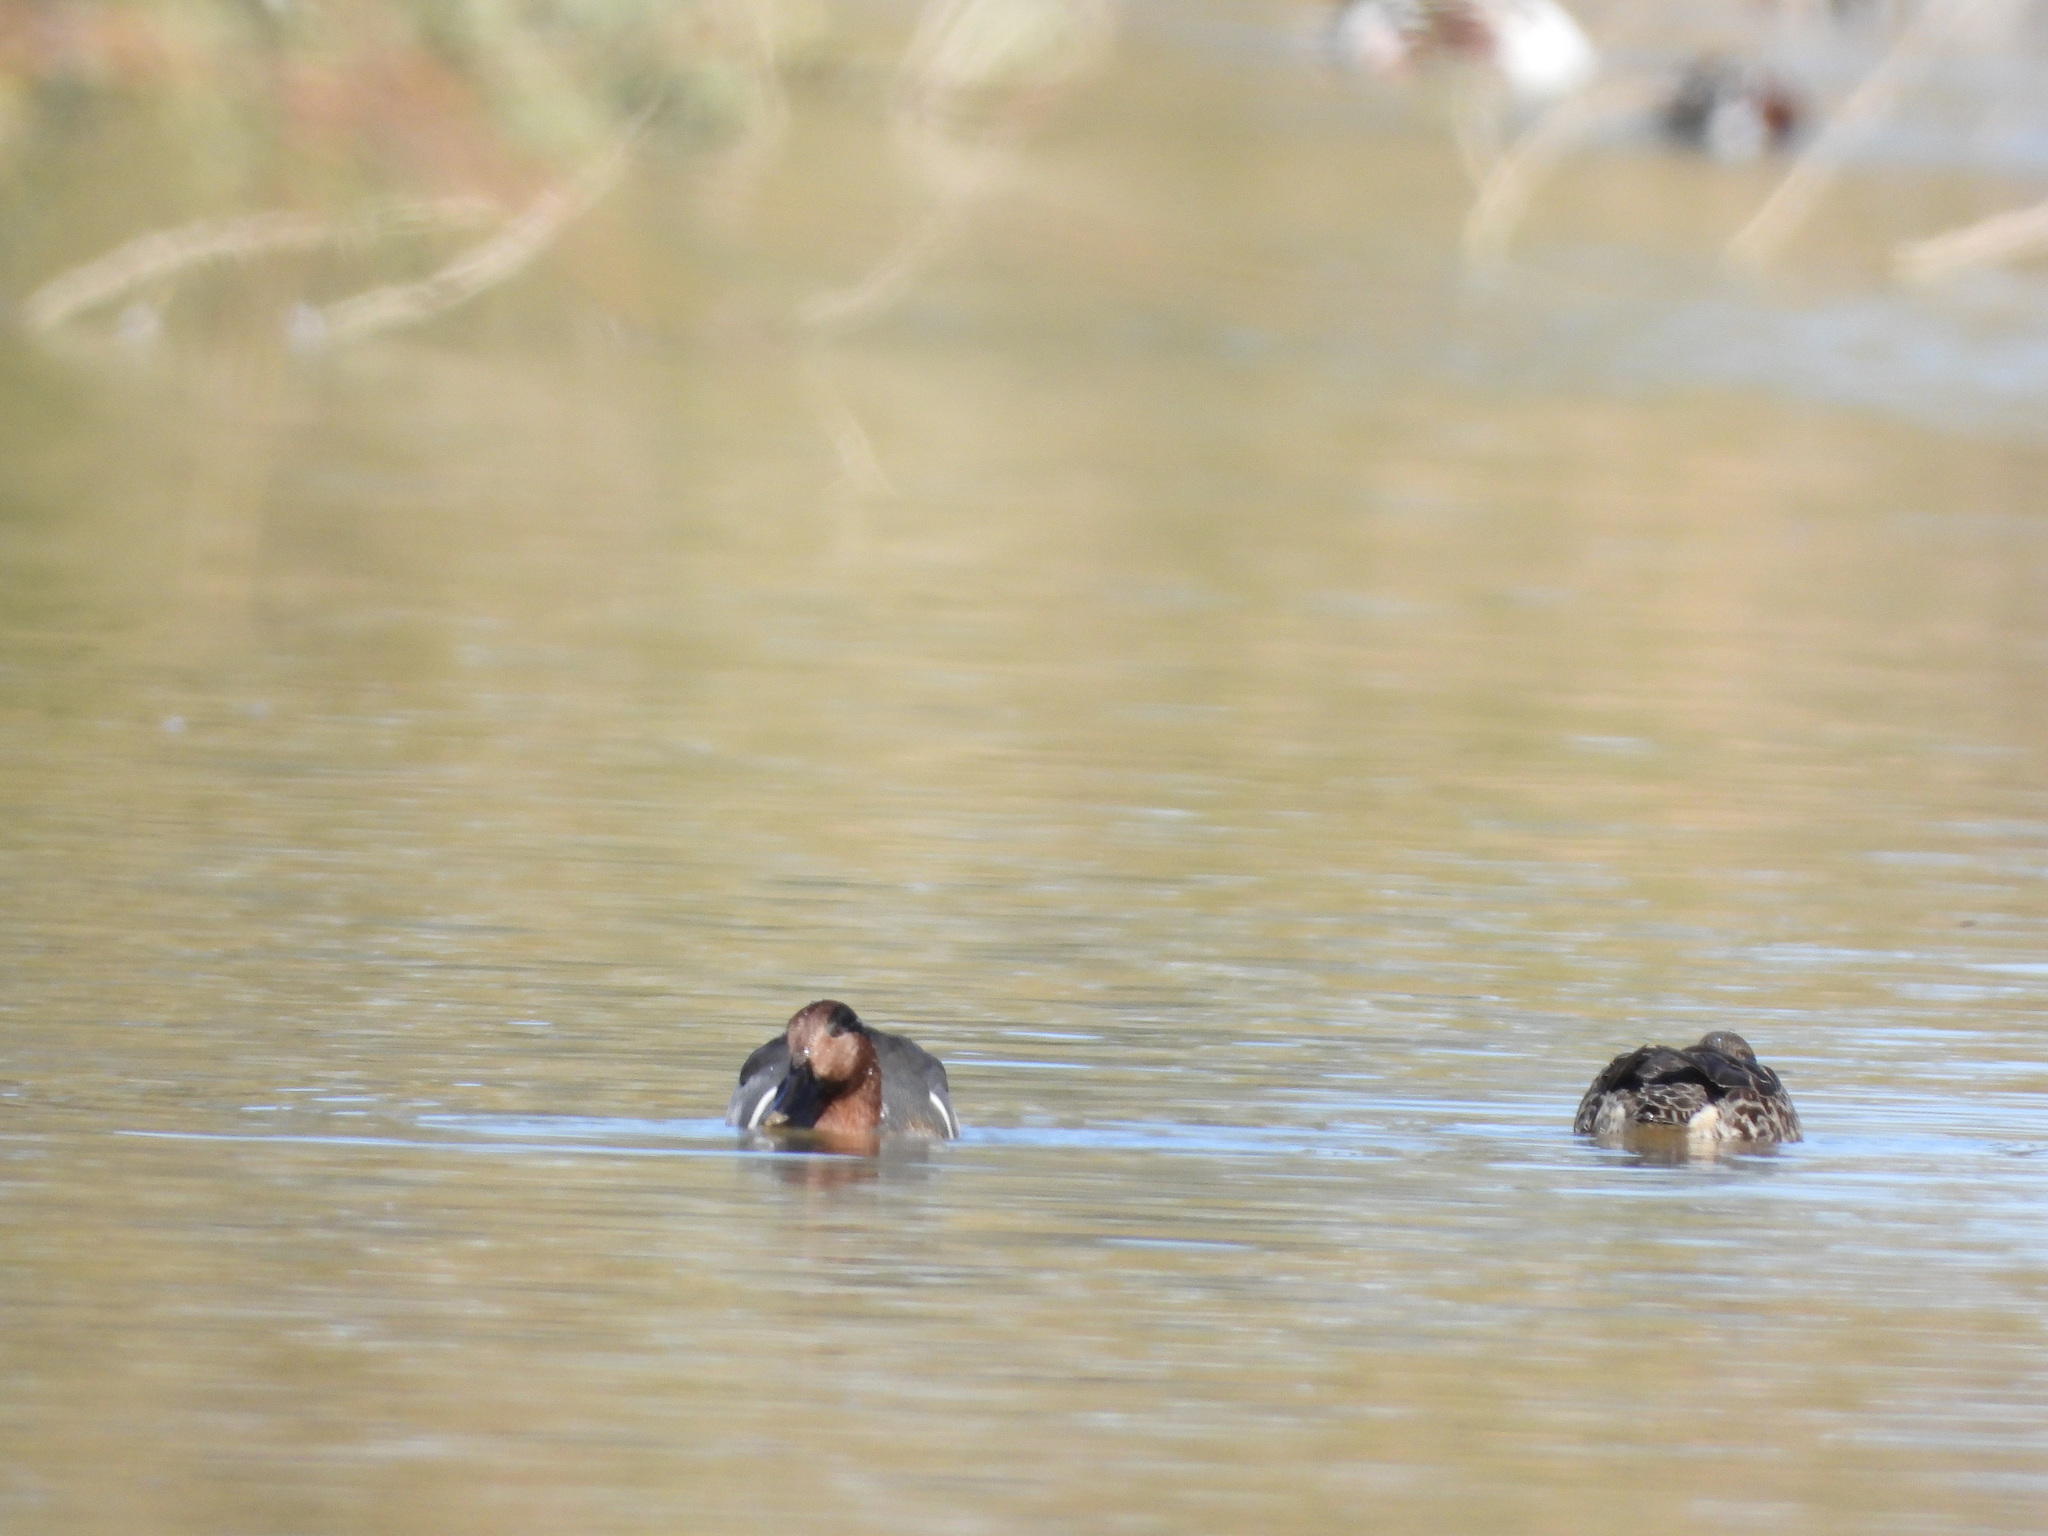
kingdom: Animalia
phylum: Chordata
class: Aves
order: Anseriformes
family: Anatidae
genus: Anas
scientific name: Anas crecca
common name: Eurasian teal
